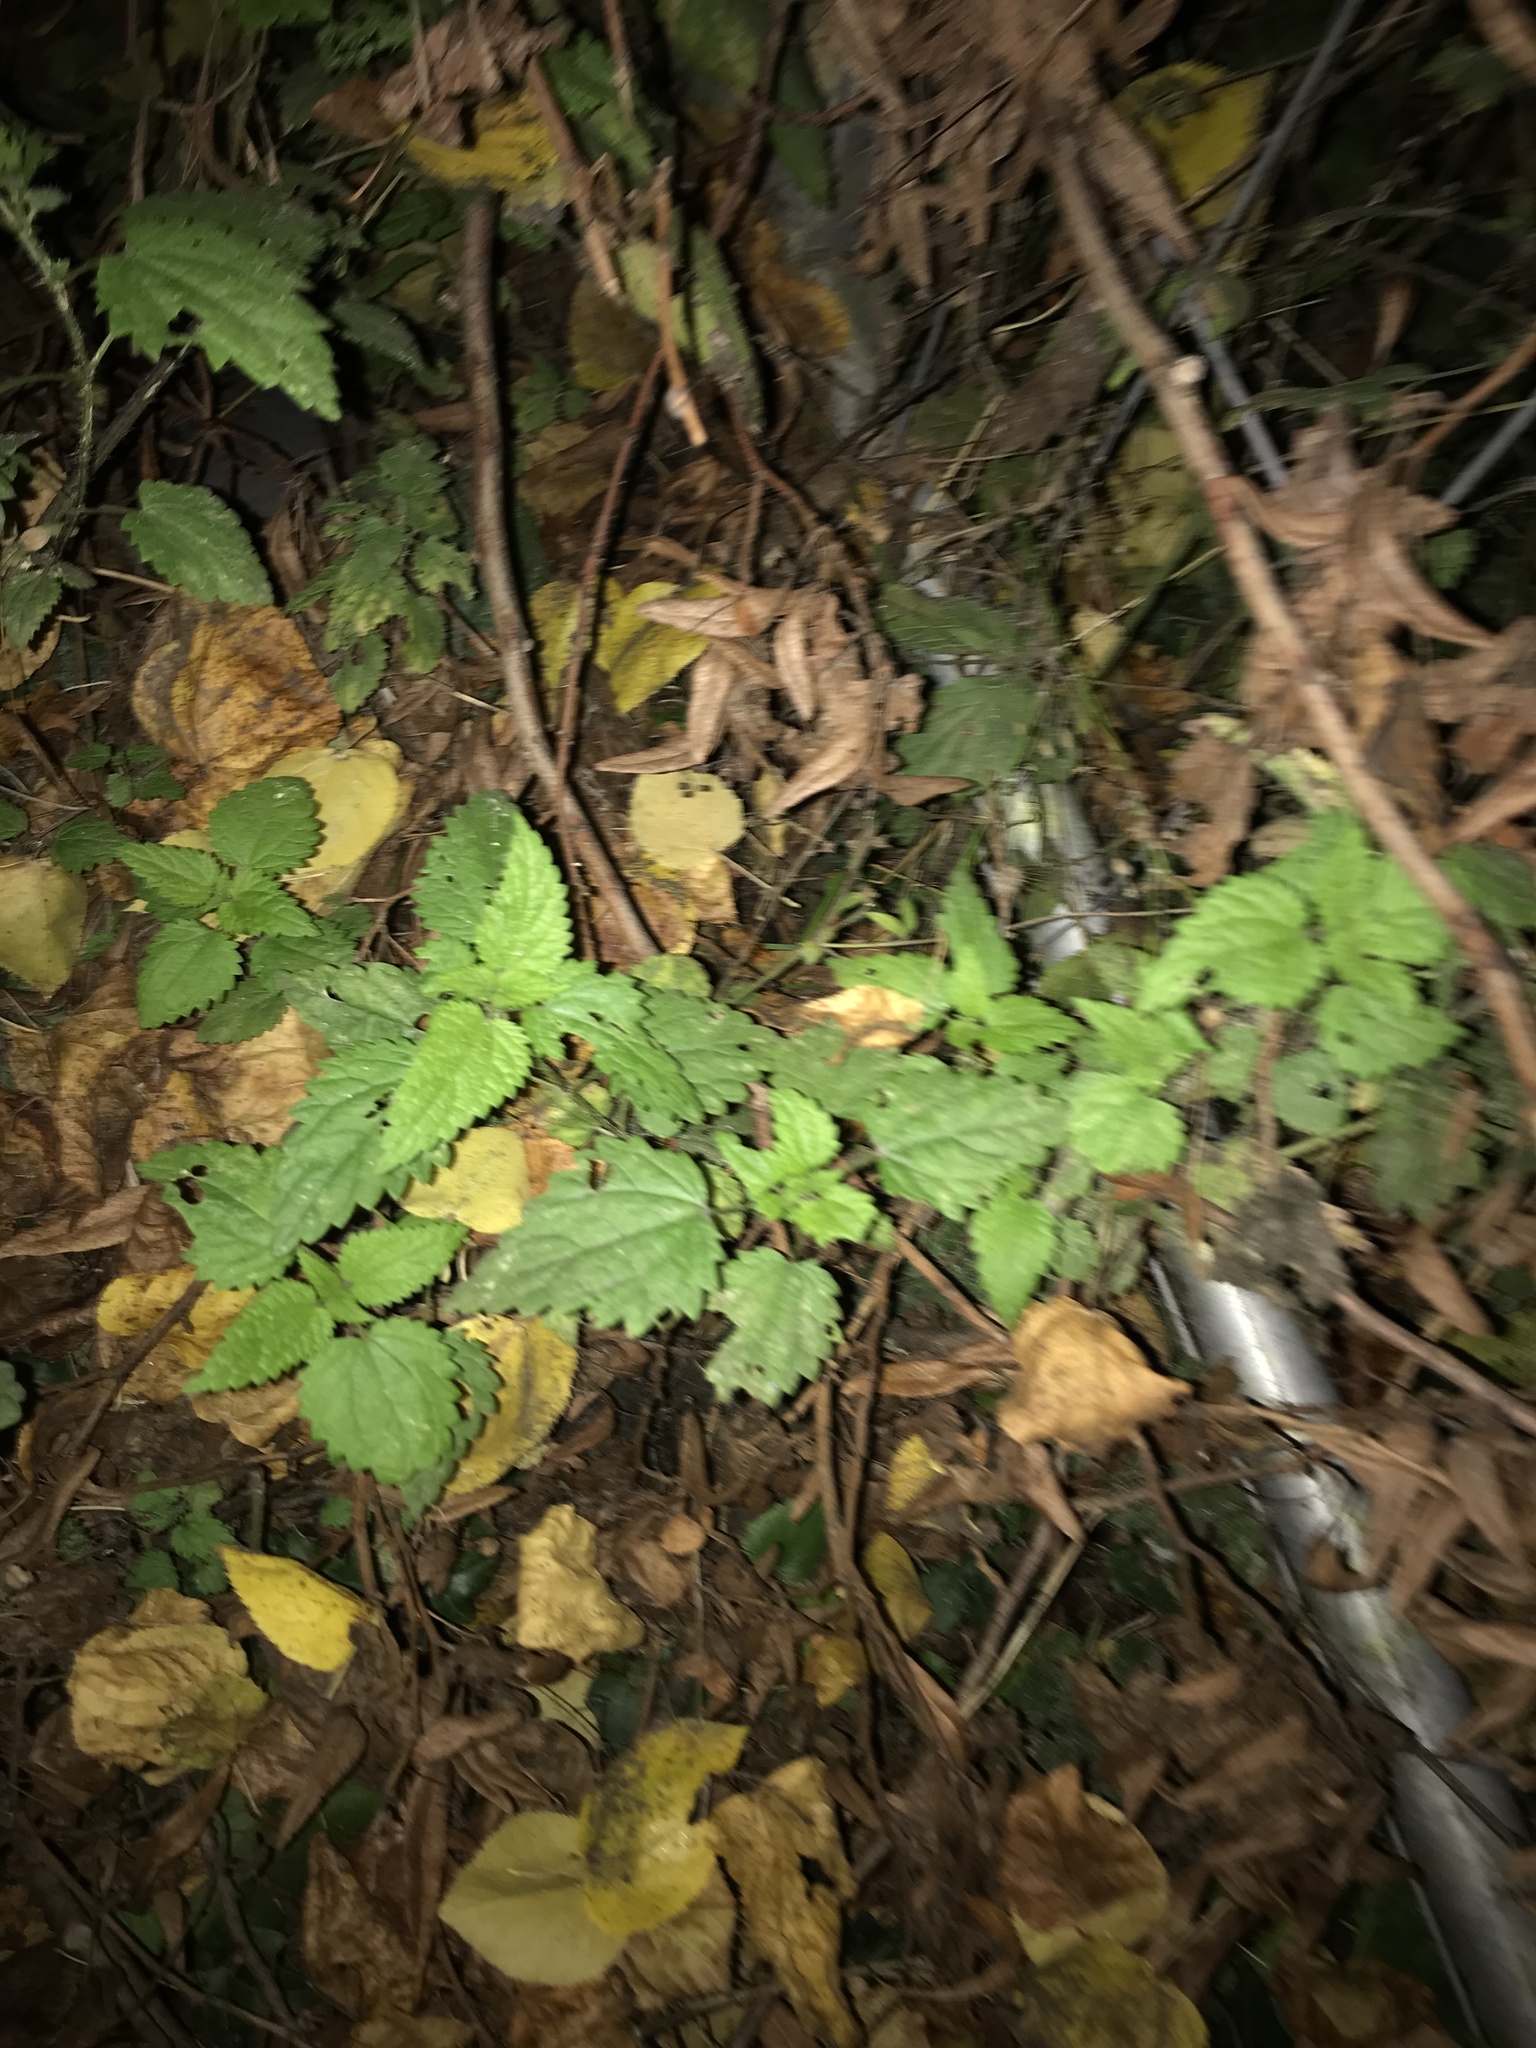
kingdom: Plantae
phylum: Tracheophyta
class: Magnoliopsida
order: Rosales
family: Urticaceae
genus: Urtica
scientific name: Urtica dioica
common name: Common nettle
